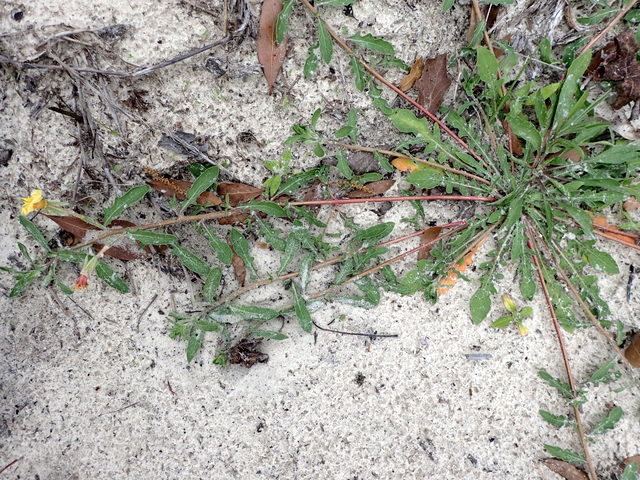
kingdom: Plantae
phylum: Tracheophyta
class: Magnoliopsida
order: Myrtales
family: Onagraceae
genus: Oenothera
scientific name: Oenothera laciniata
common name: Cut-leaved evening-primrose
